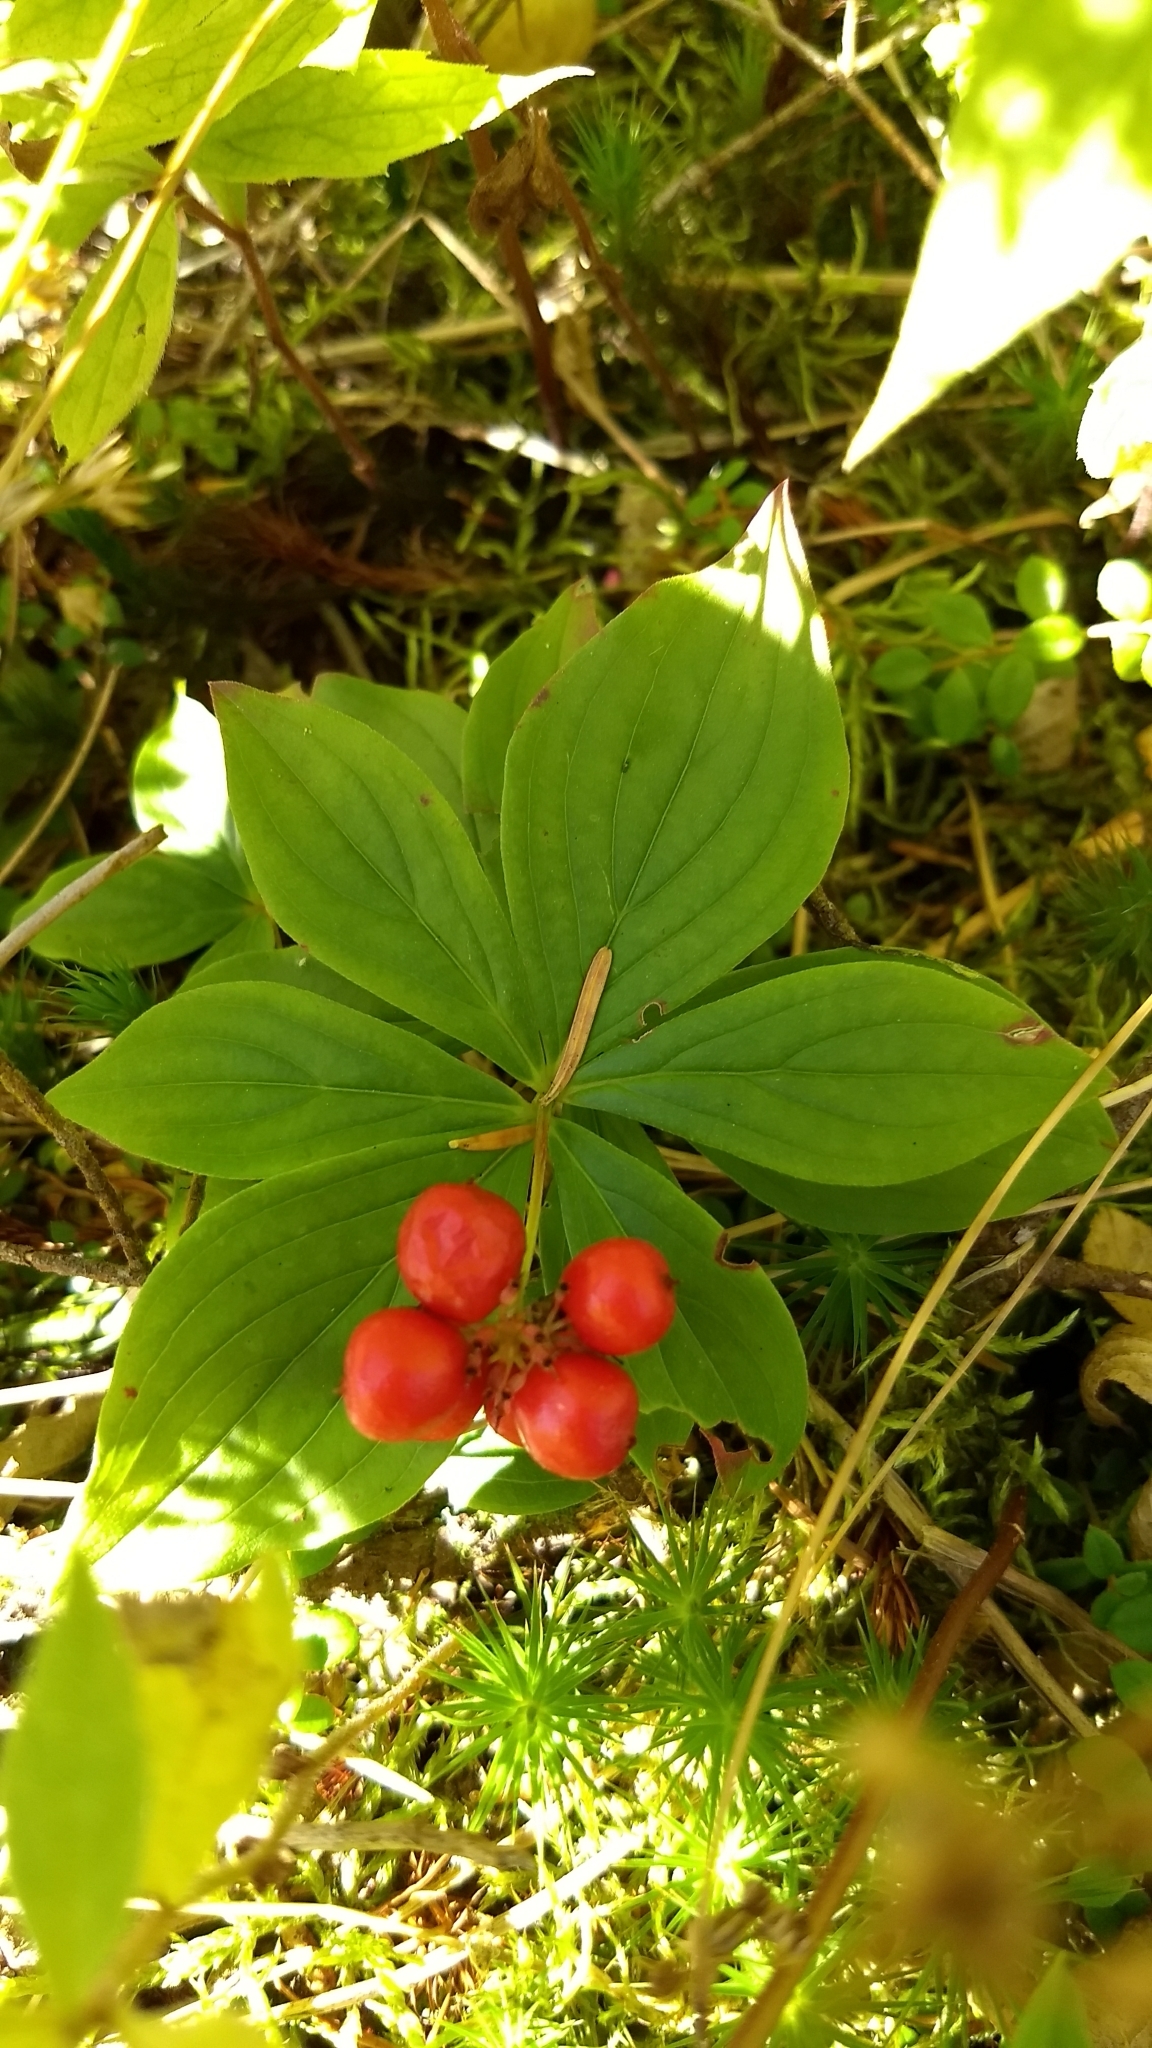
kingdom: Plantae
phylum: Tracheophyta
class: Magnoliopsida
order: Cornales
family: Cornaceae
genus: Cornus
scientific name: Cornus canadensis
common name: Creeping dogwood
